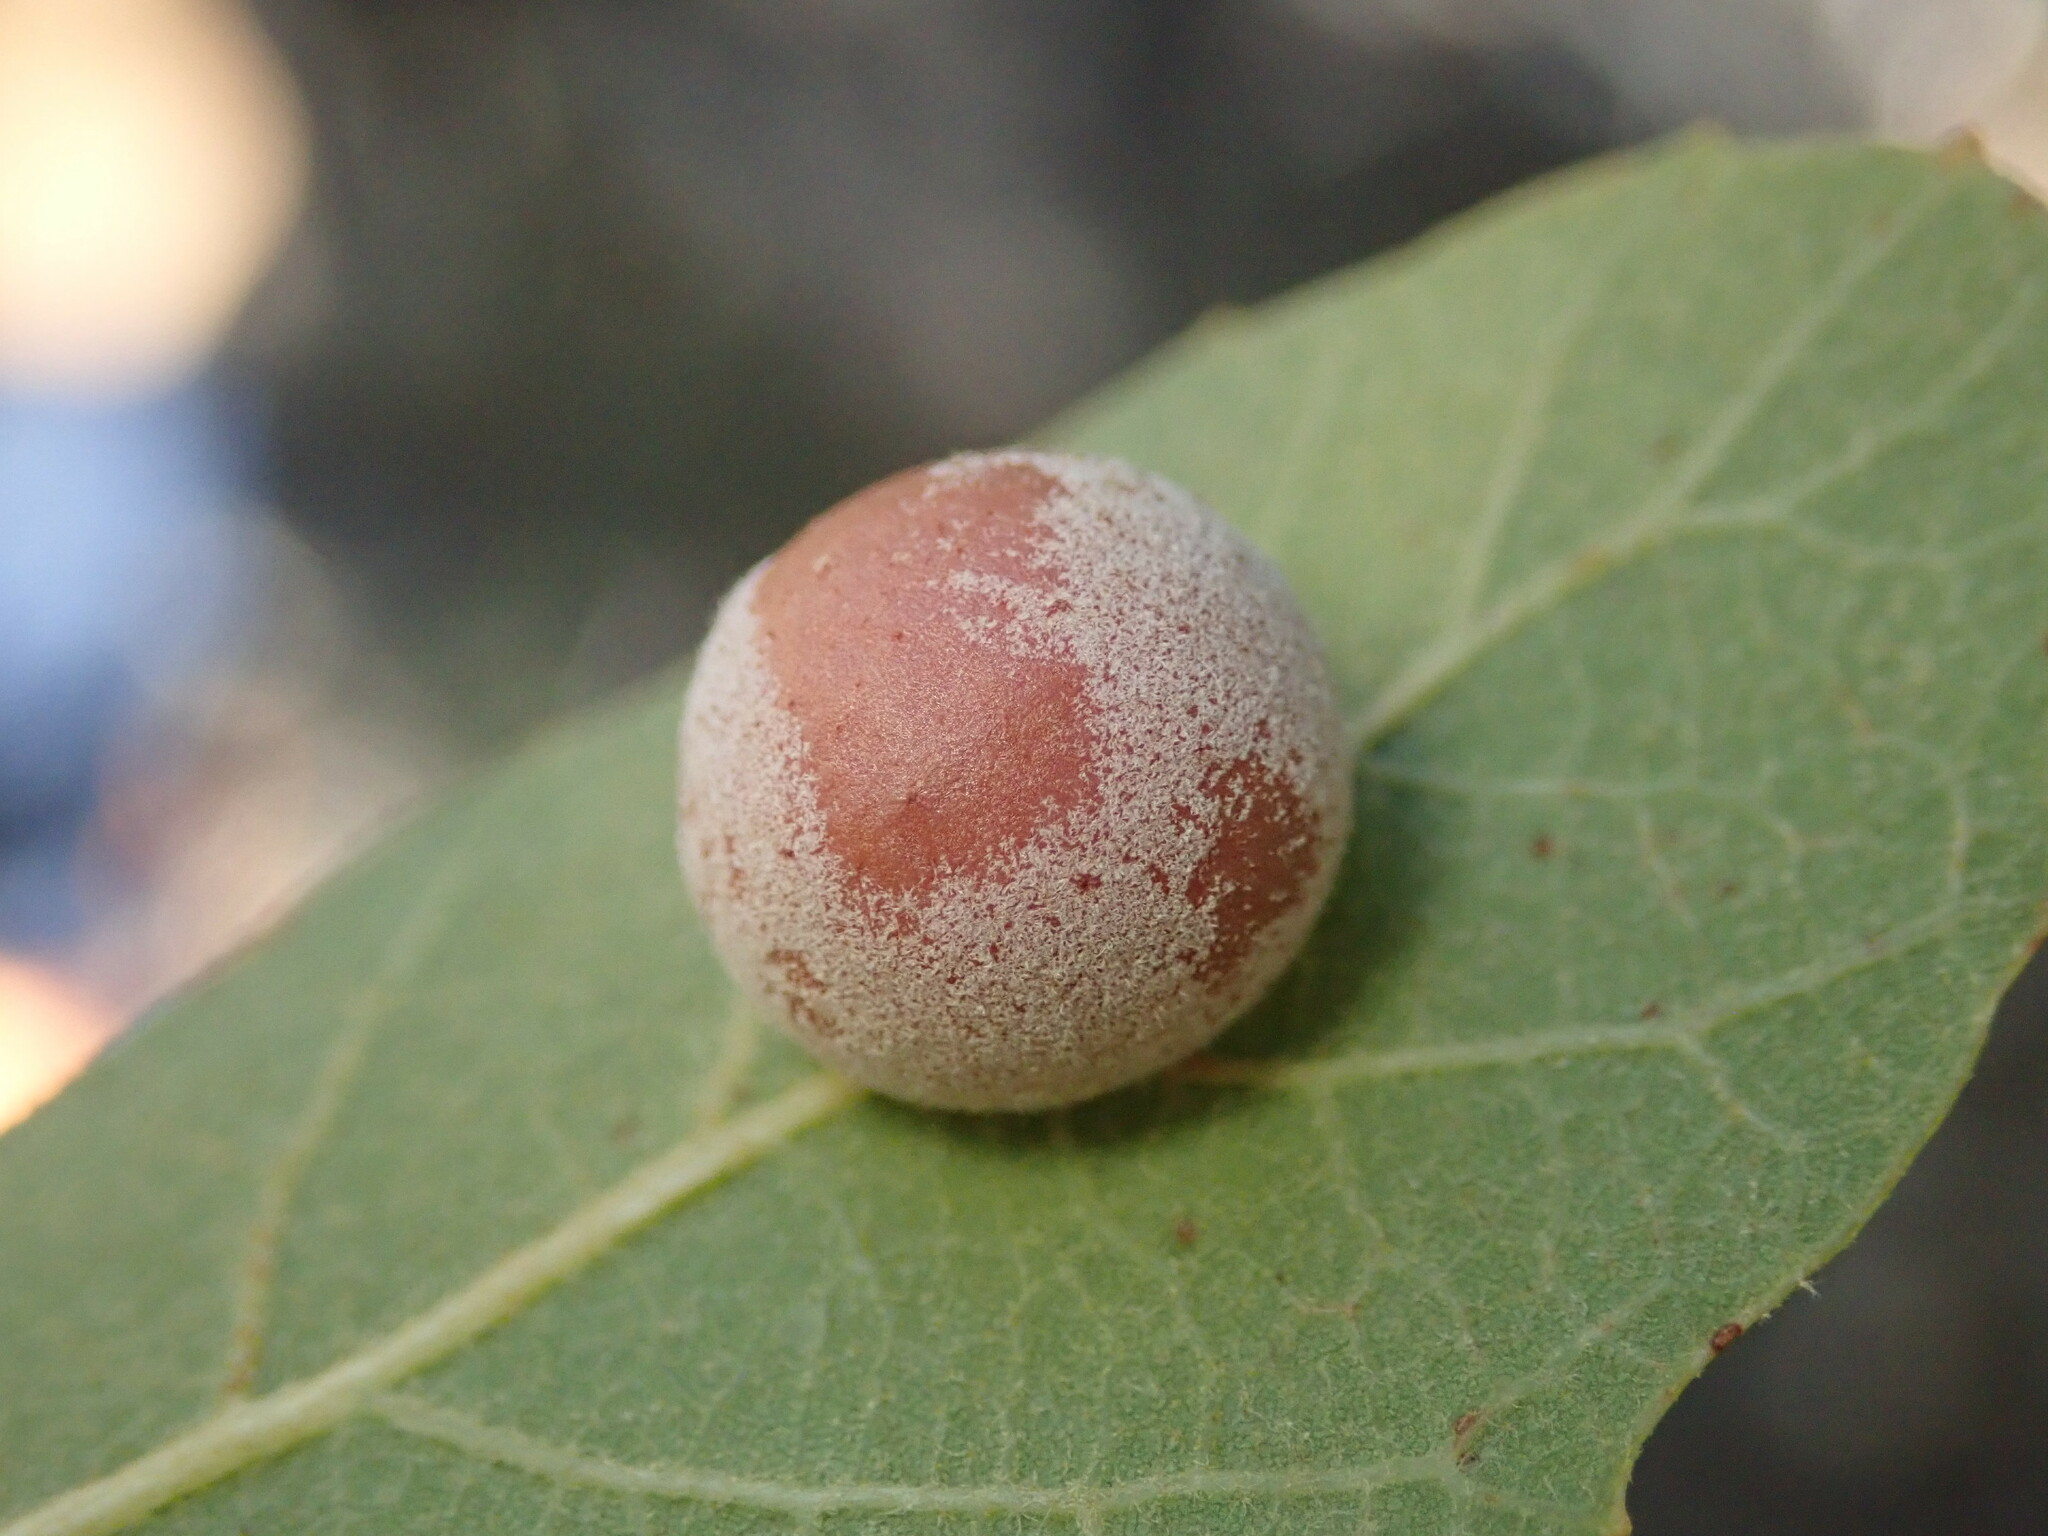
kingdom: Animalia
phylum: Arthropoda
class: Insecta
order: Hymenoptera
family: Cynipidae
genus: Cynips
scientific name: Cynips
